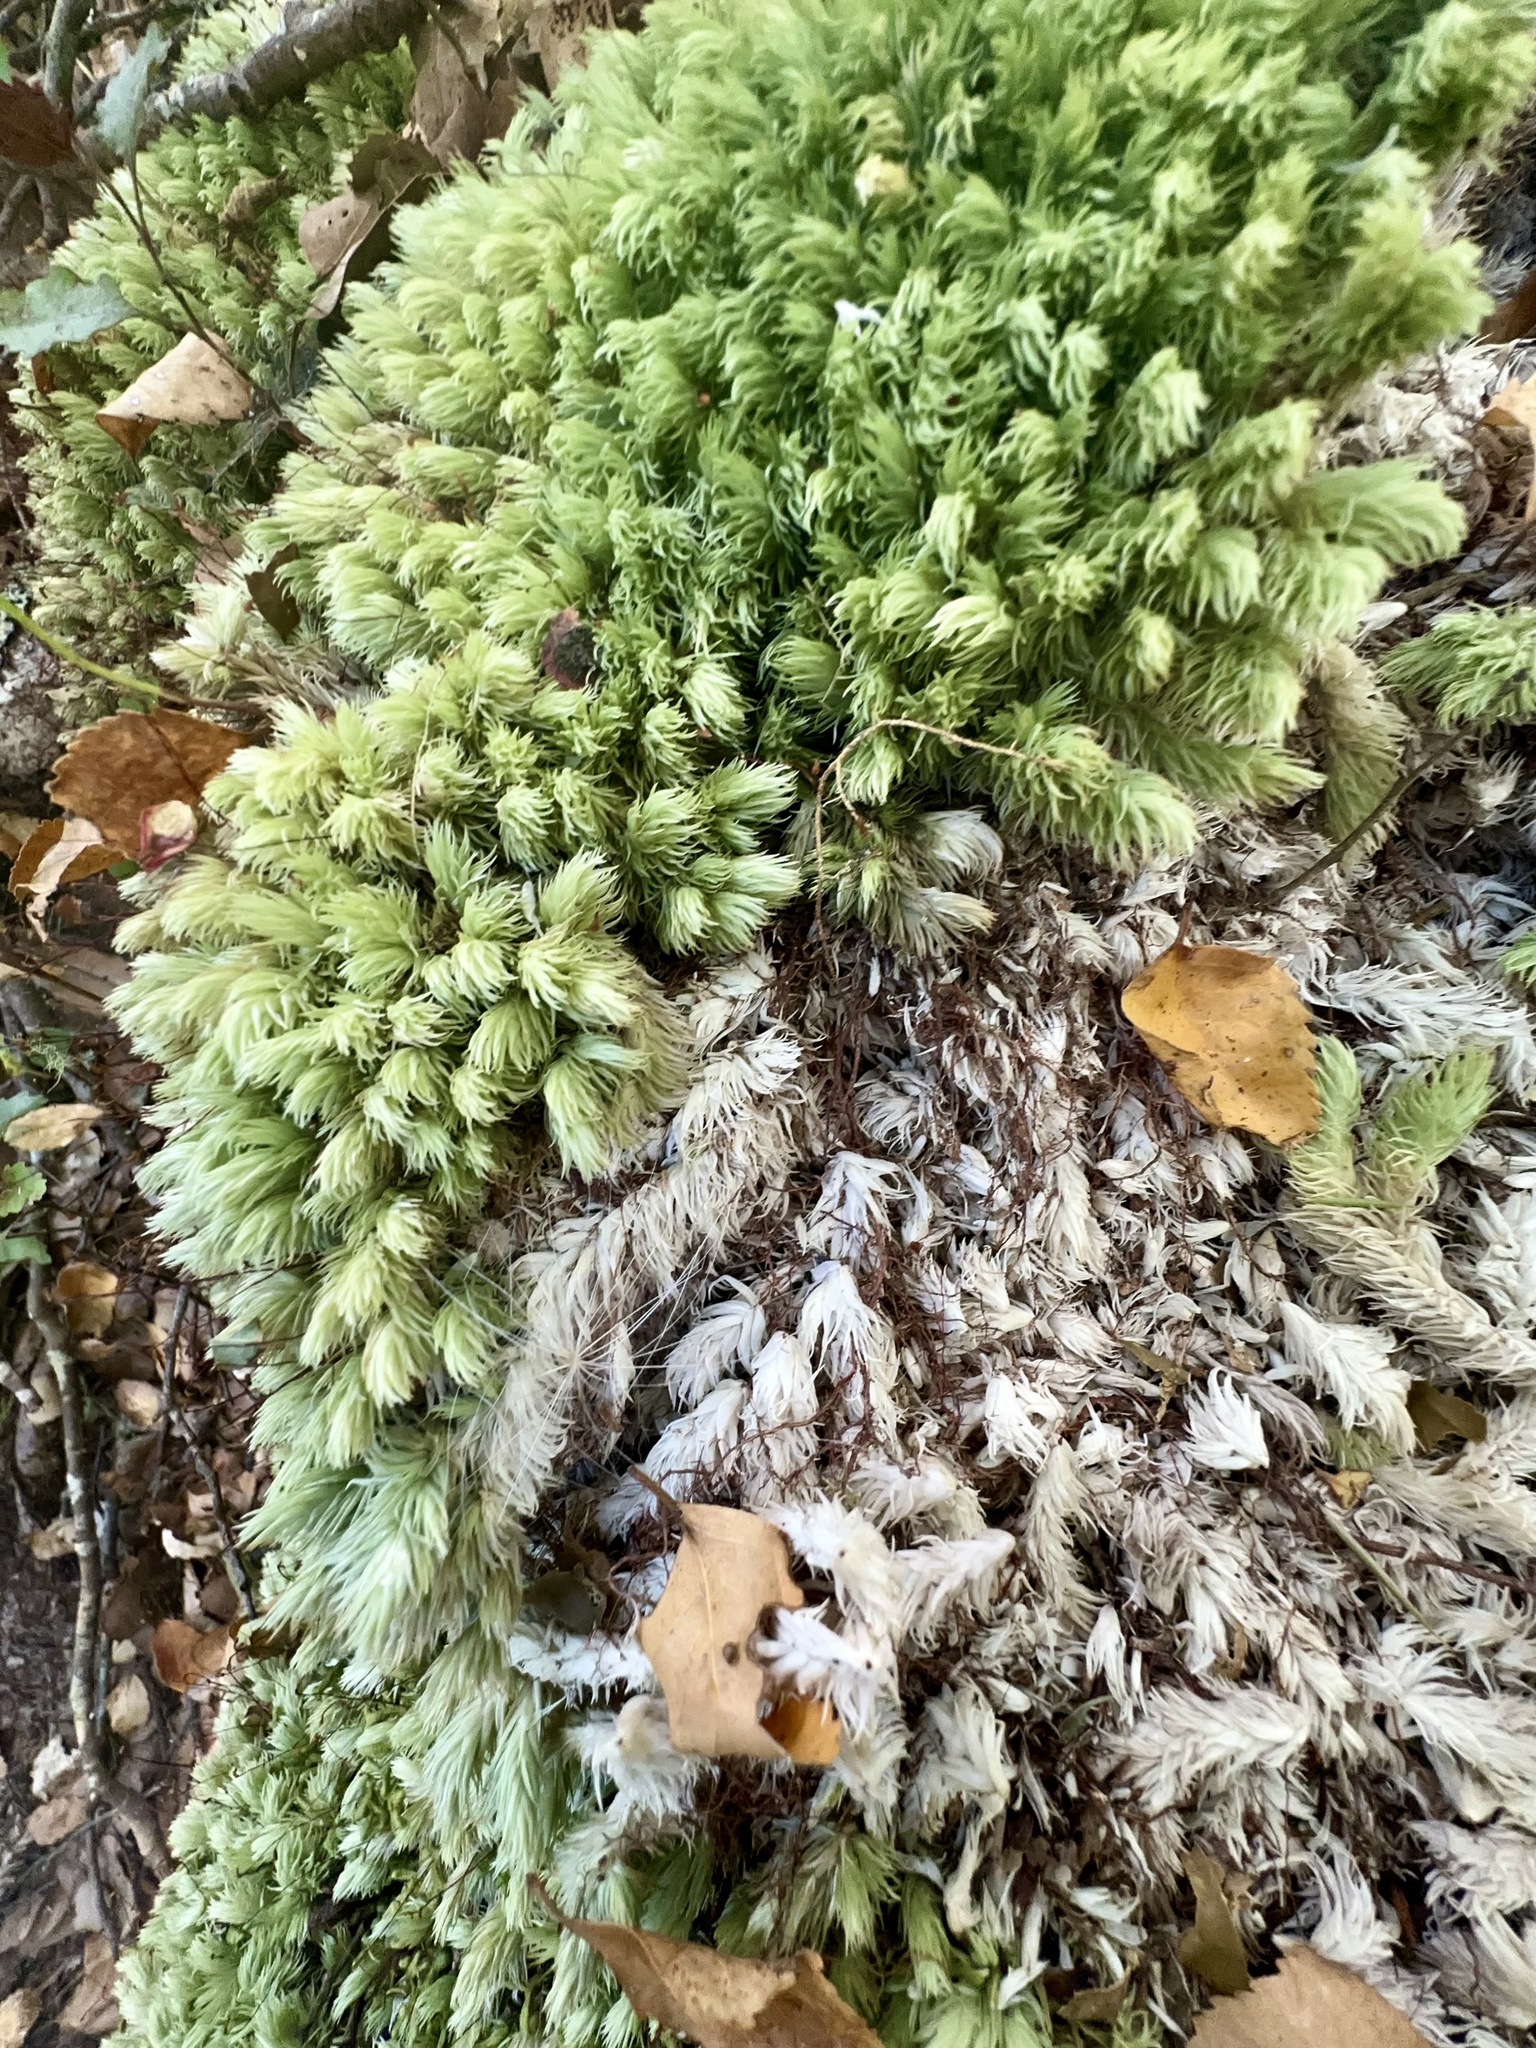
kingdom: Plantae
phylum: Bryophyta
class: Bryopsida
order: Dicranales
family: Leucobryaceae
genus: Leucobryum
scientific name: Leucobryum javense
